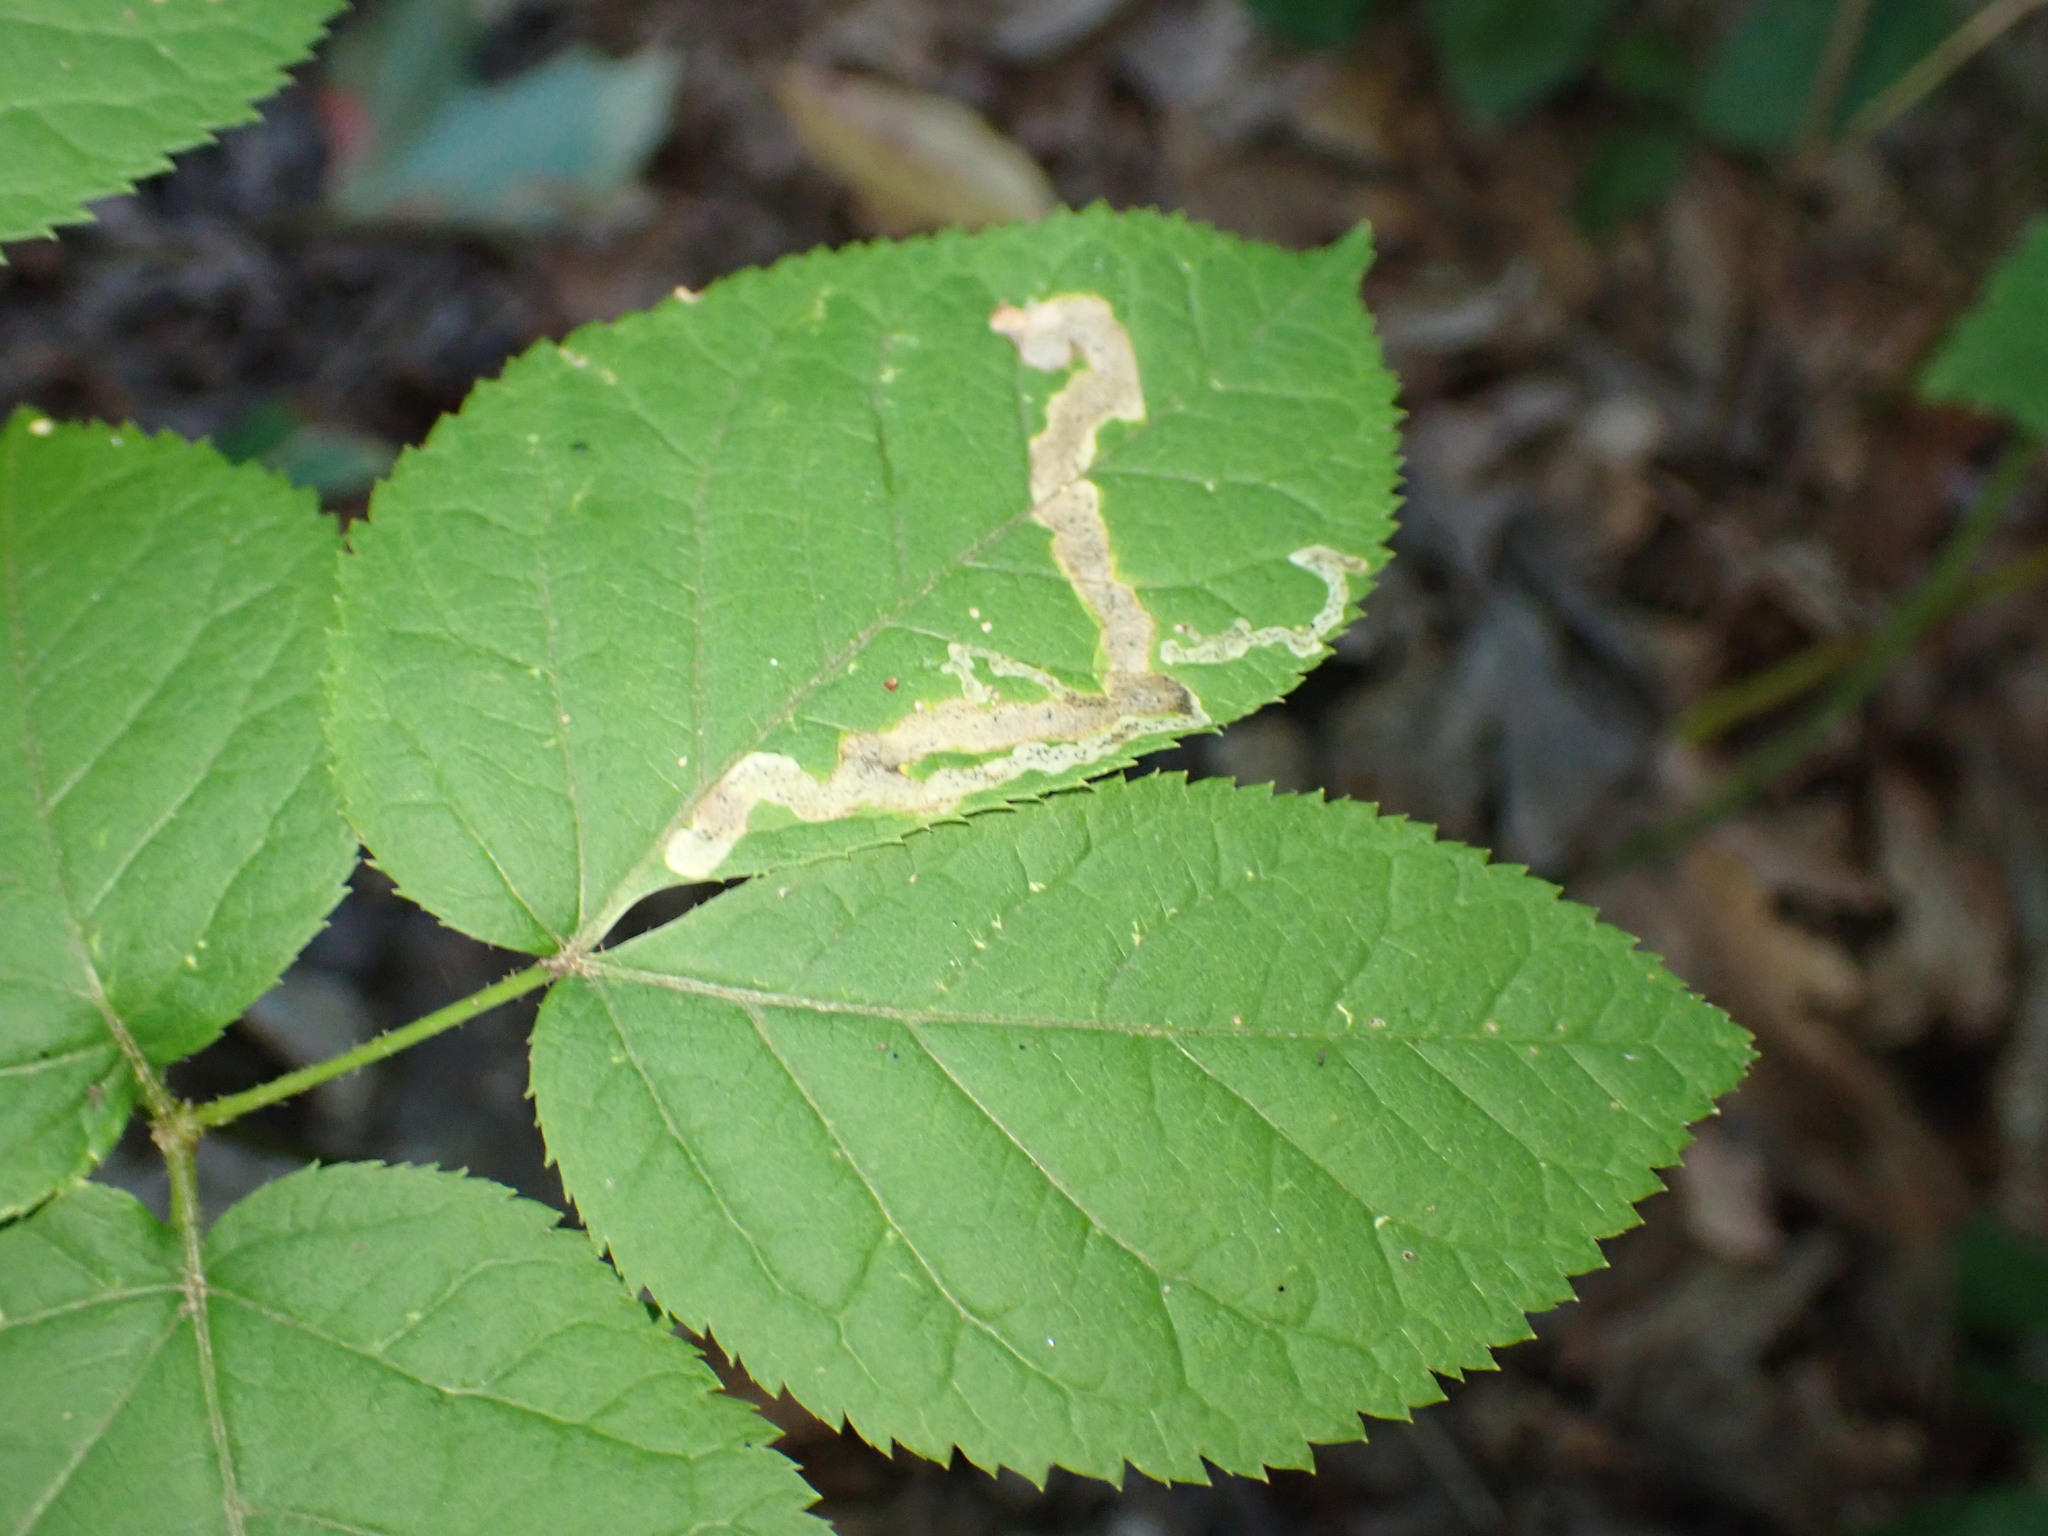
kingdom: Animalia
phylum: Arthropoda
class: Insecta
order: Diptera
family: Agromyzidae
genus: Phytomyza
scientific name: Phytomyza aralivora
